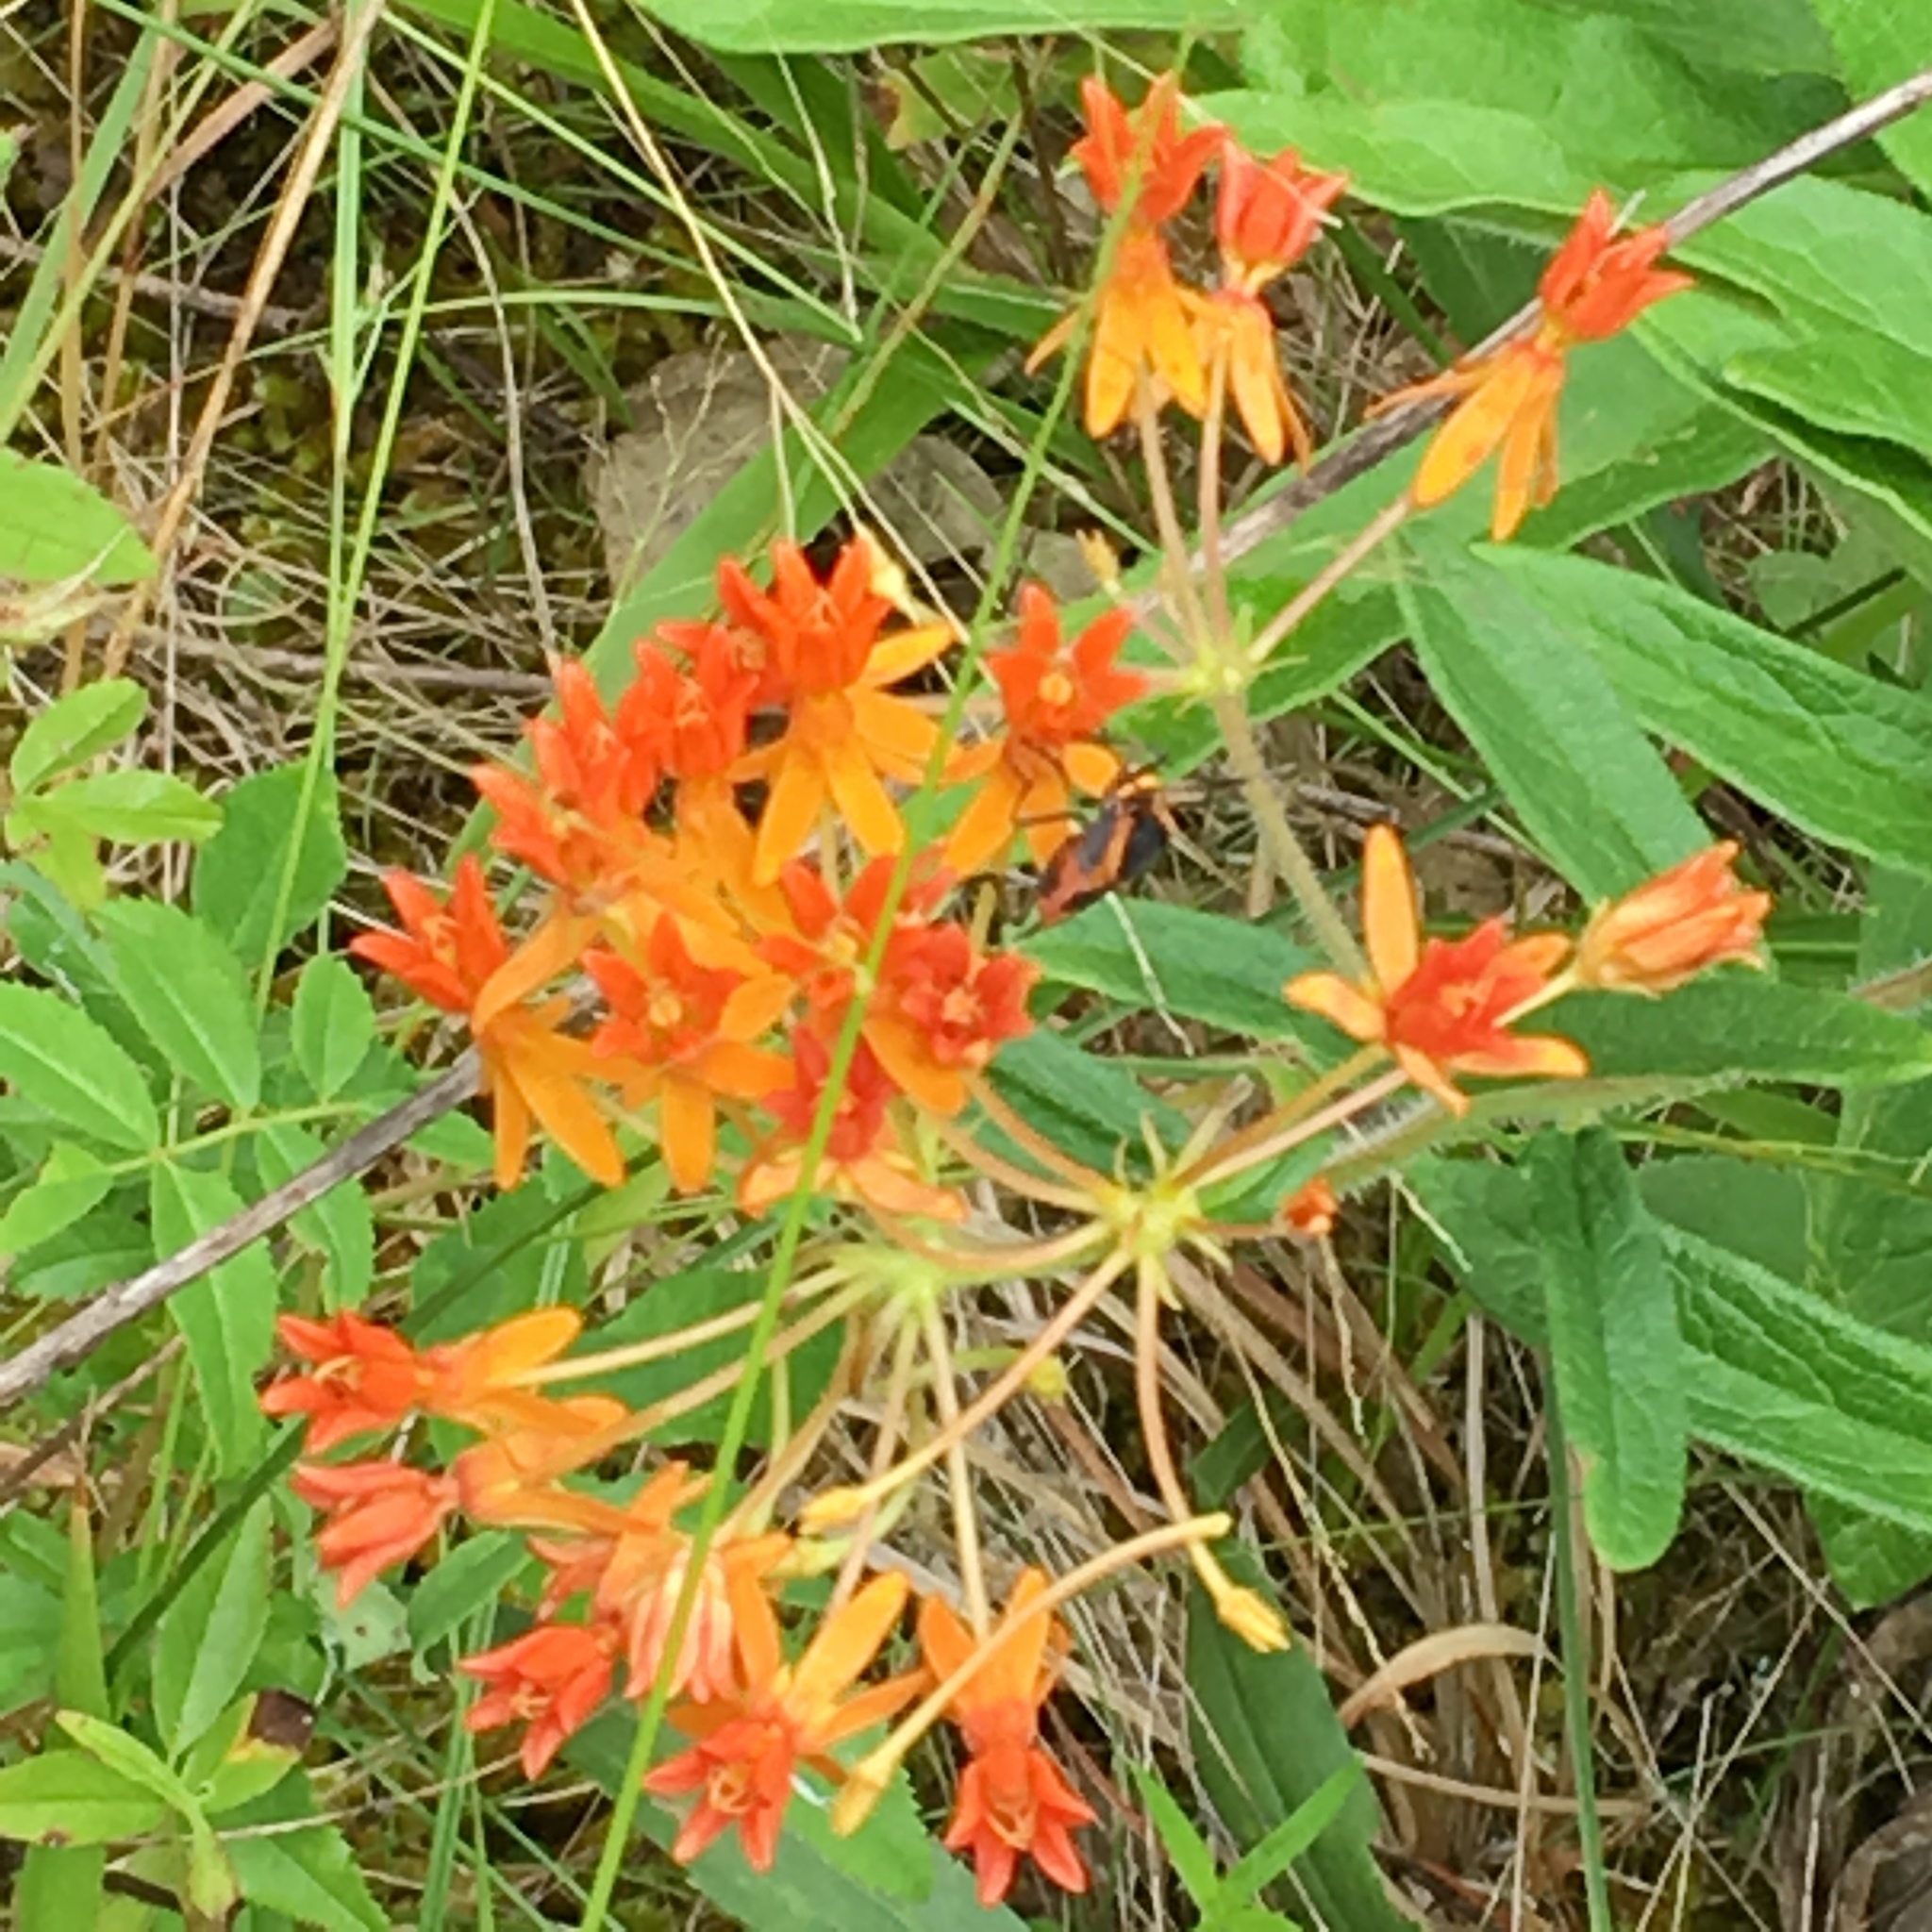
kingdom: Plantae
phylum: Tracheophyta
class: Magnoliopsida
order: Gentianales
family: Apocynaceae
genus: Asclepias
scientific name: Asclepias tuberosa
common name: Butterfly milkweed
